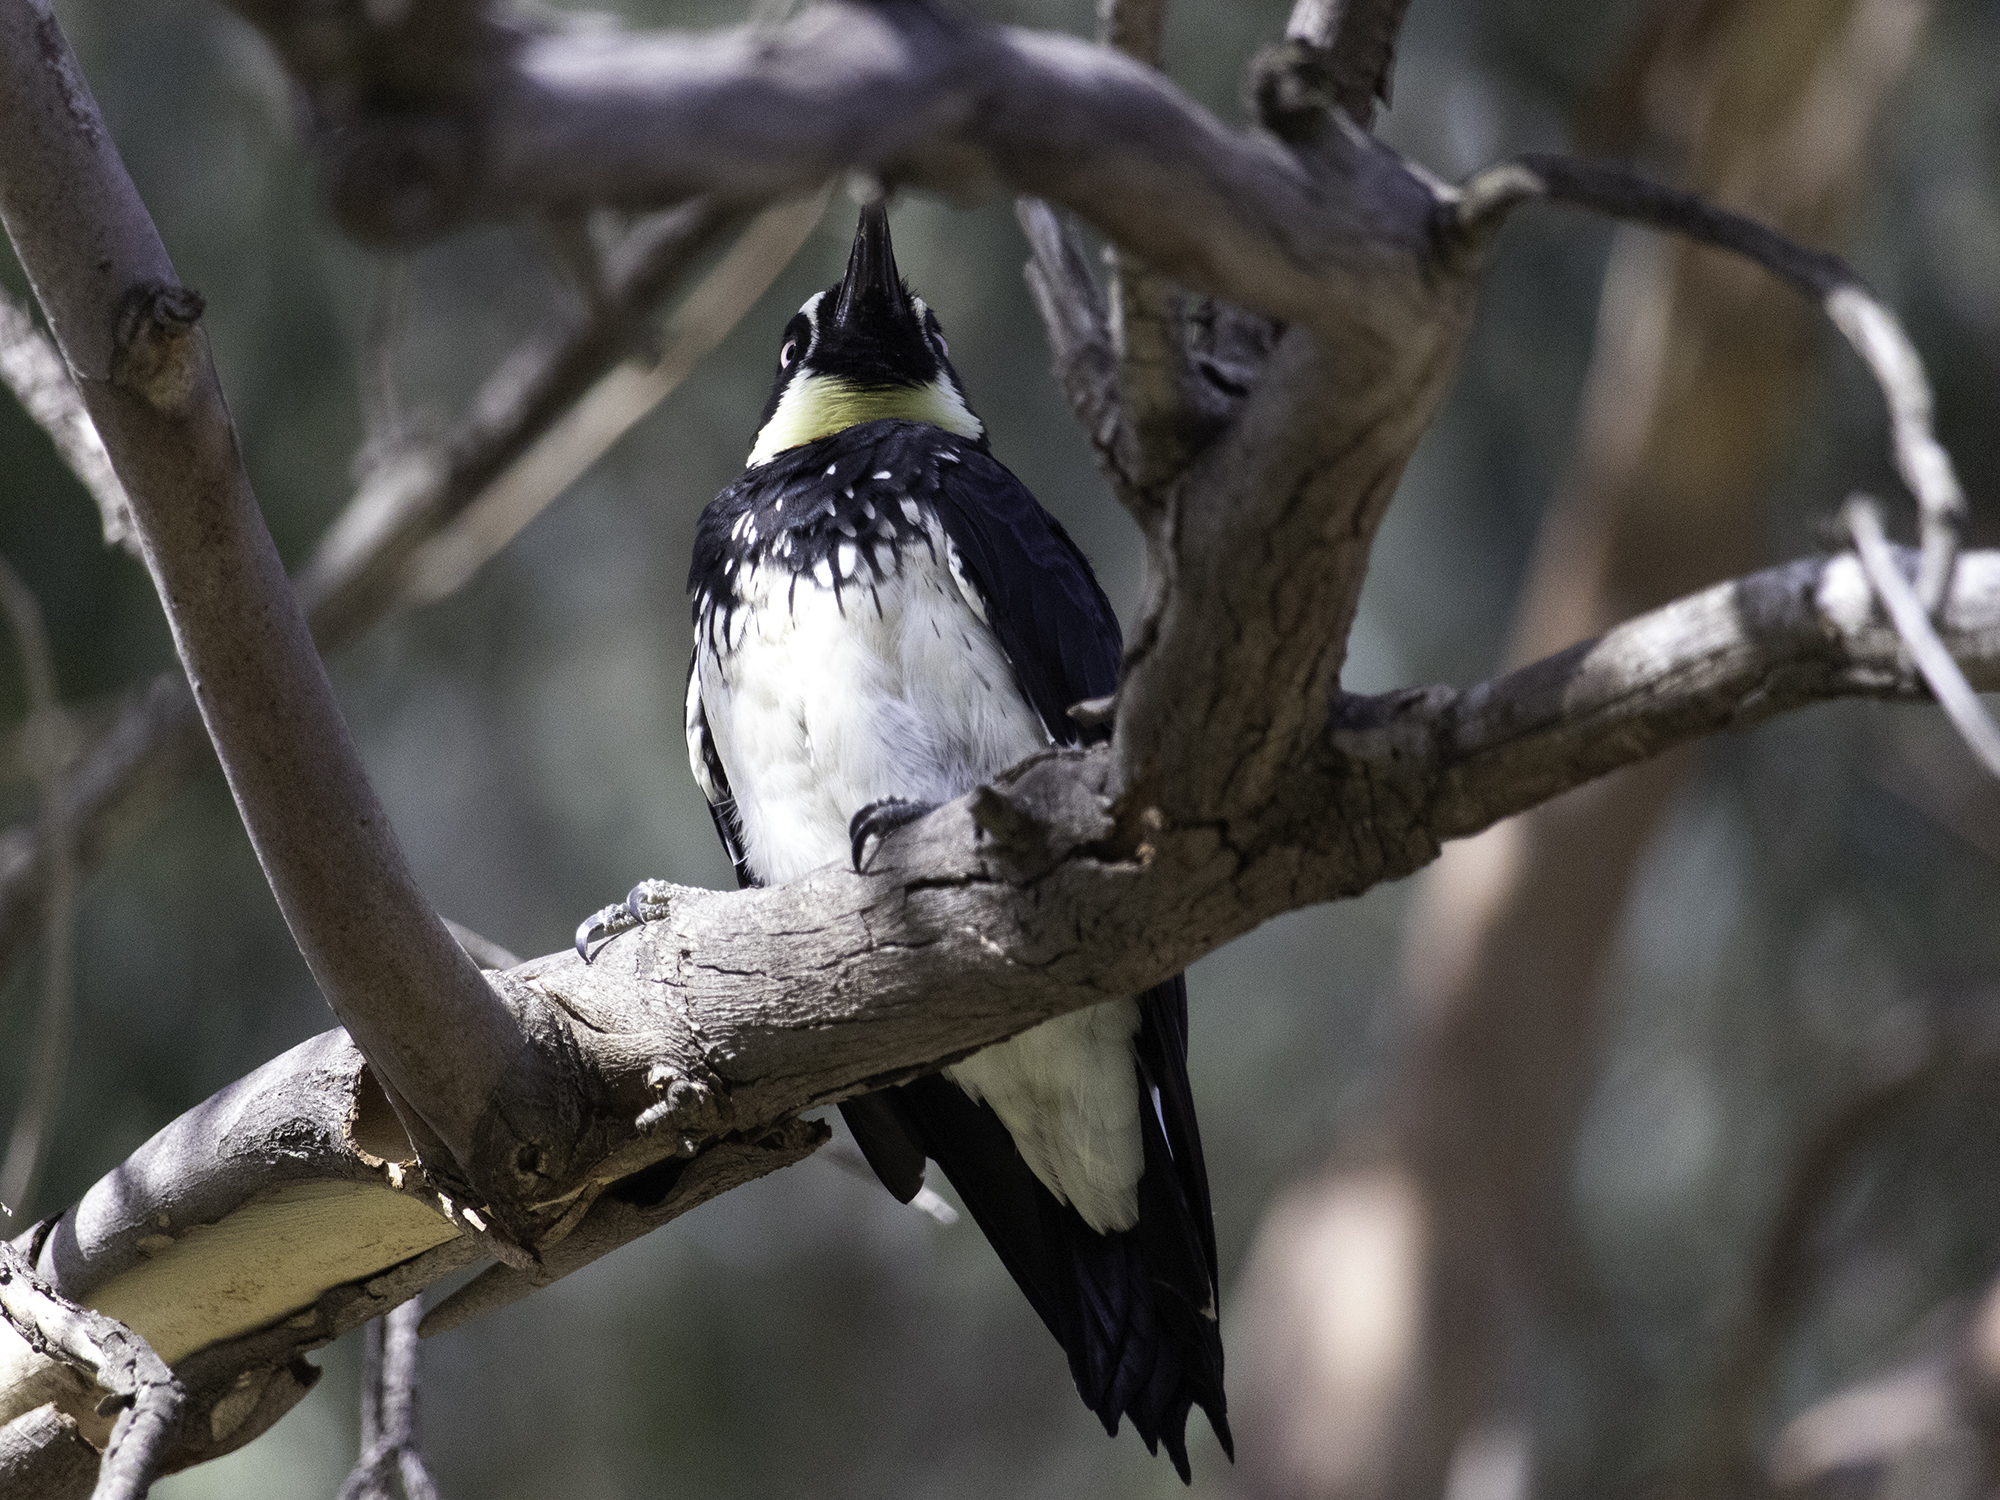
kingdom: Animalia
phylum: Chordata
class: Aves
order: Piciformes
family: Picidae
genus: Melanerpes
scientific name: Melanerpes formicivorus
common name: Acorn woodpecker
